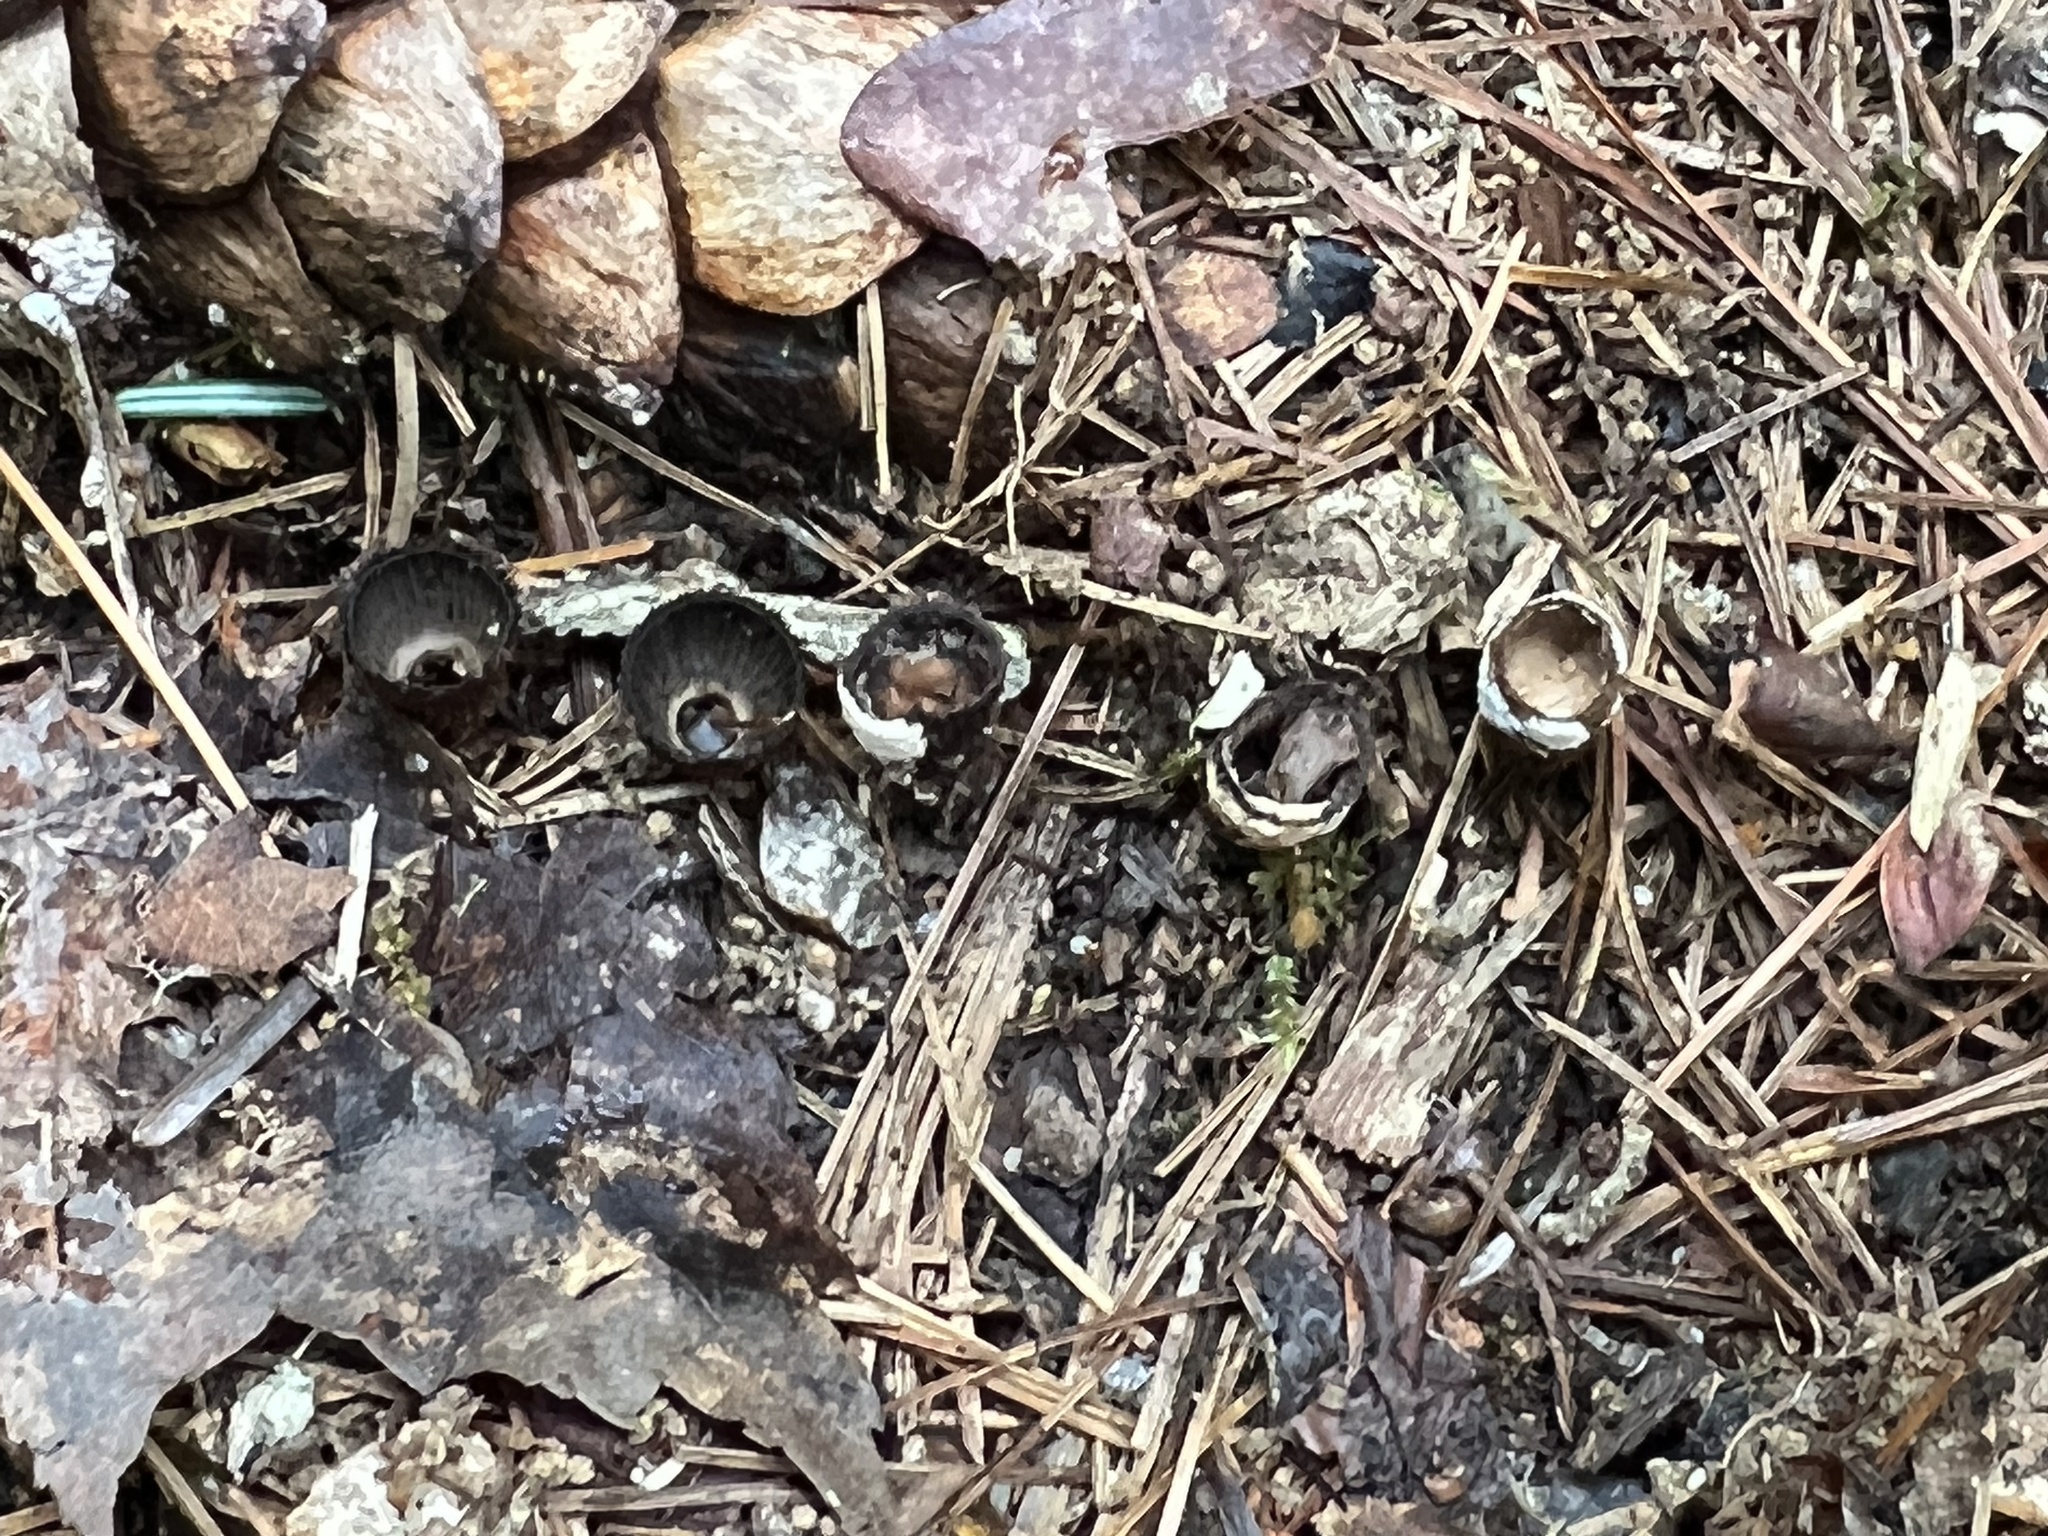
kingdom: Fungi
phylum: Basidiomycota
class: Agaricomycetes
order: Agaricales
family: Agaricaceae
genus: Cyathus
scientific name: Cyathus striatus
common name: Fluted bird's nest
